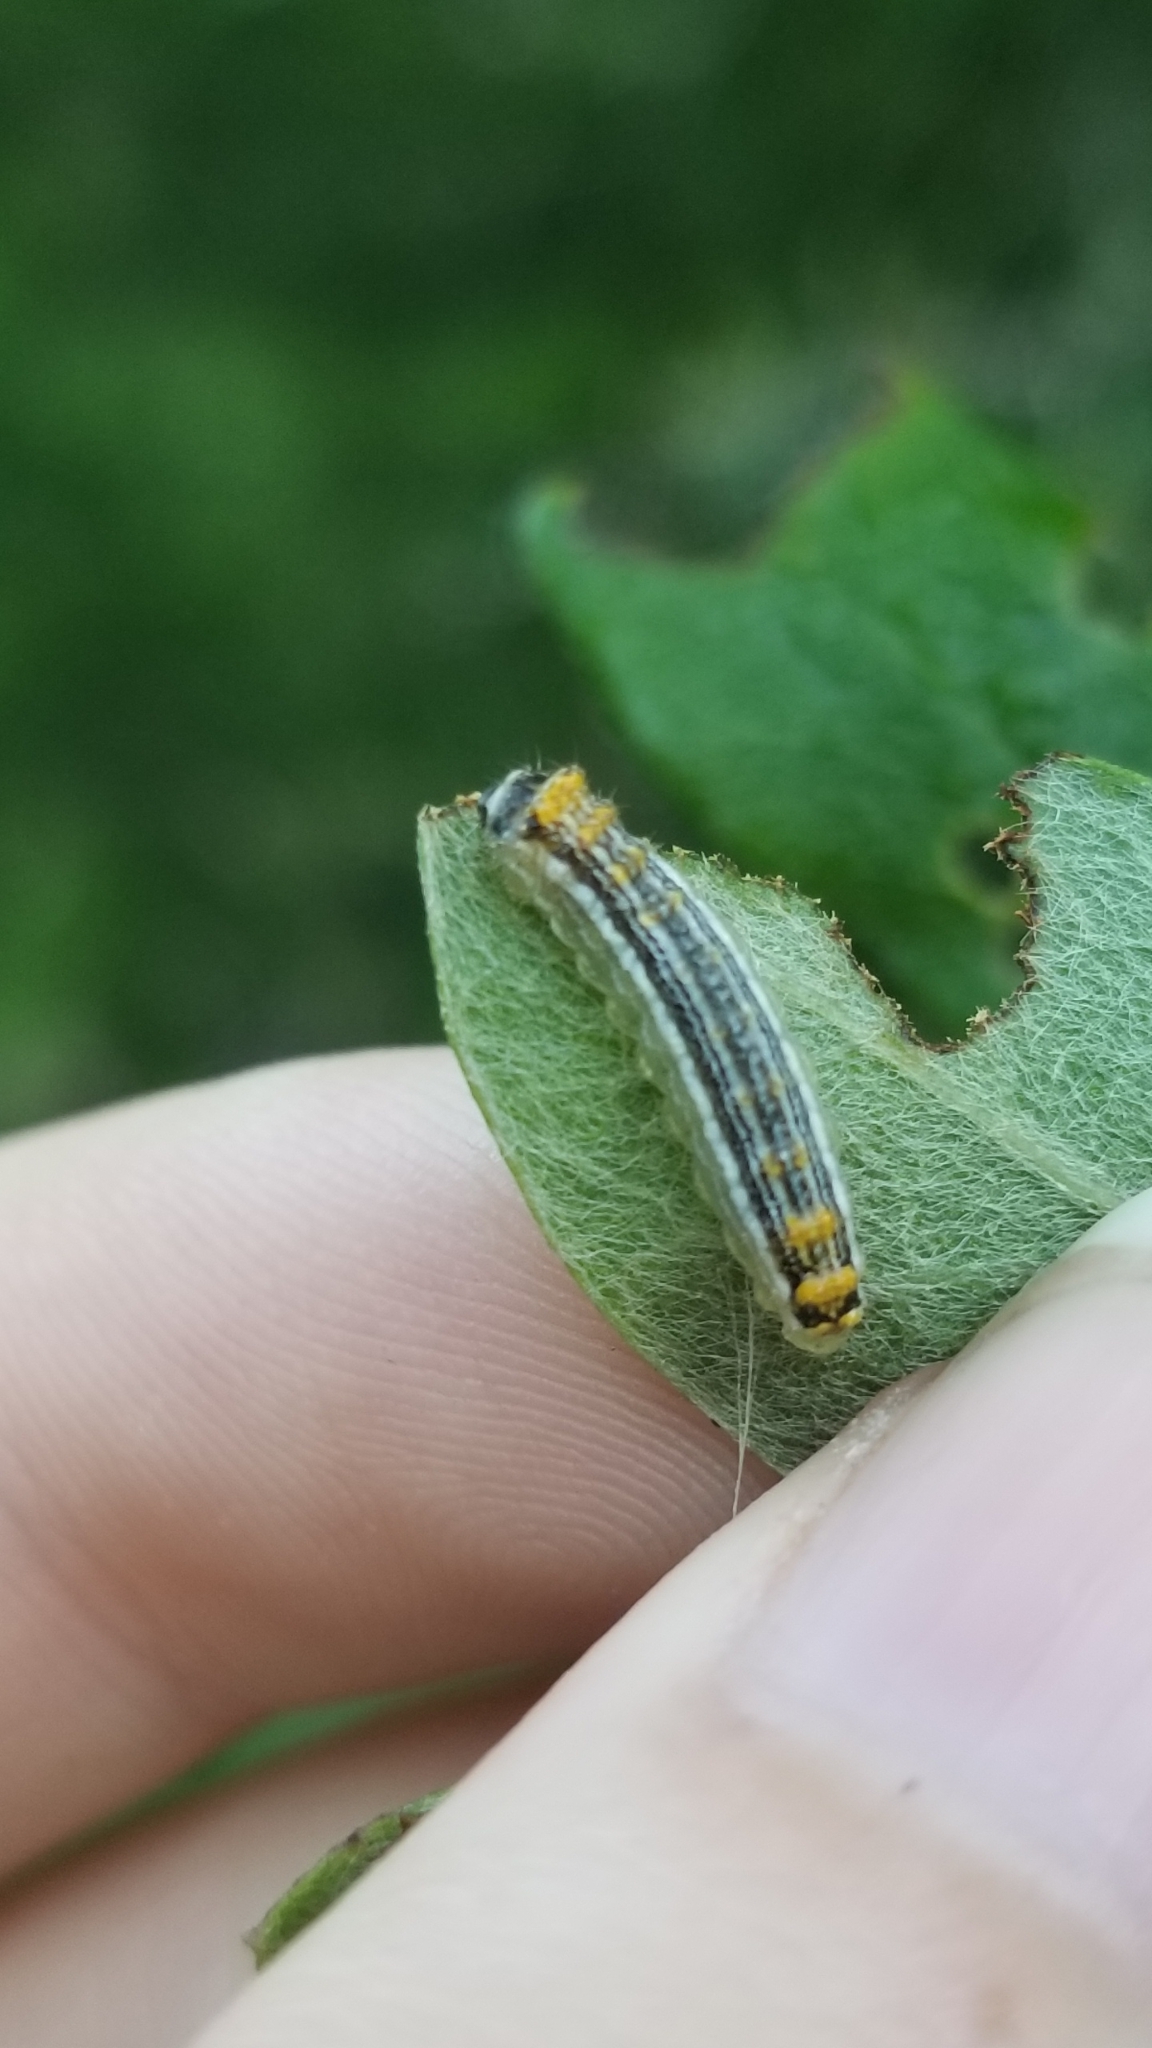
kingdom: Animalia
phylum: Arthropoda
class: Insecta
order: Lepidoptera
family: Lacturidae
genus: Lactura
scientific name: Lactura
